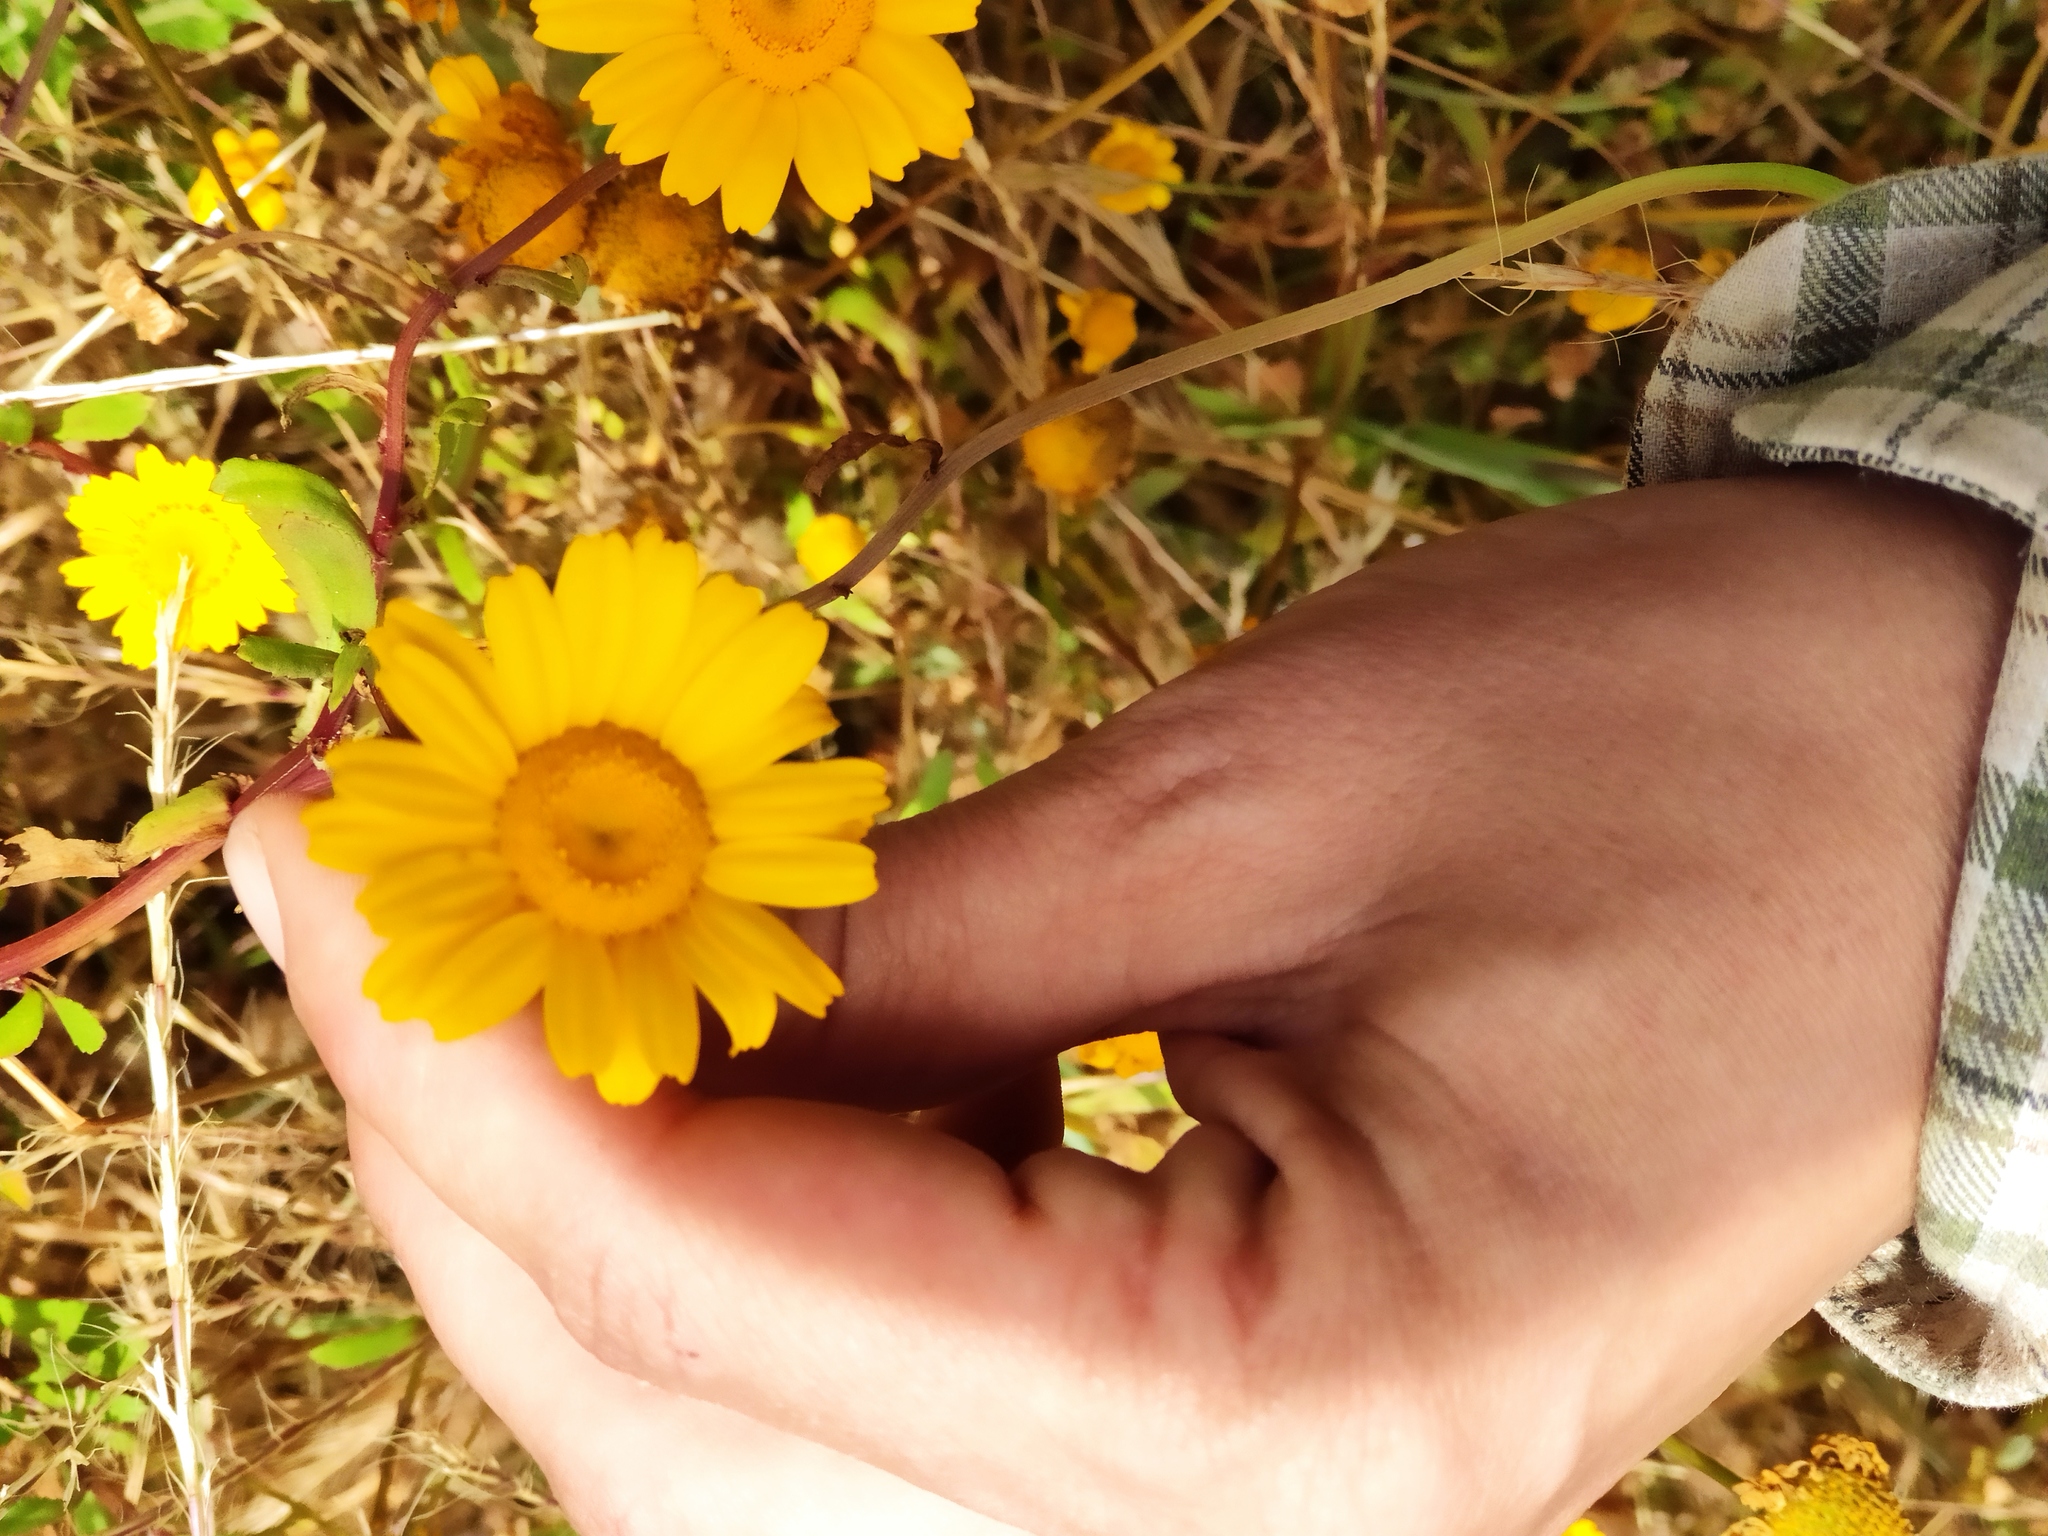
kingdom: Plantae
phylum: Tracheophyta
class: Magnoliopsida
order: Asterales
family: Asteraceae
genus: Coleostephus
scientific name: Coleostephus myconis
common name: Mediterranean marigold
